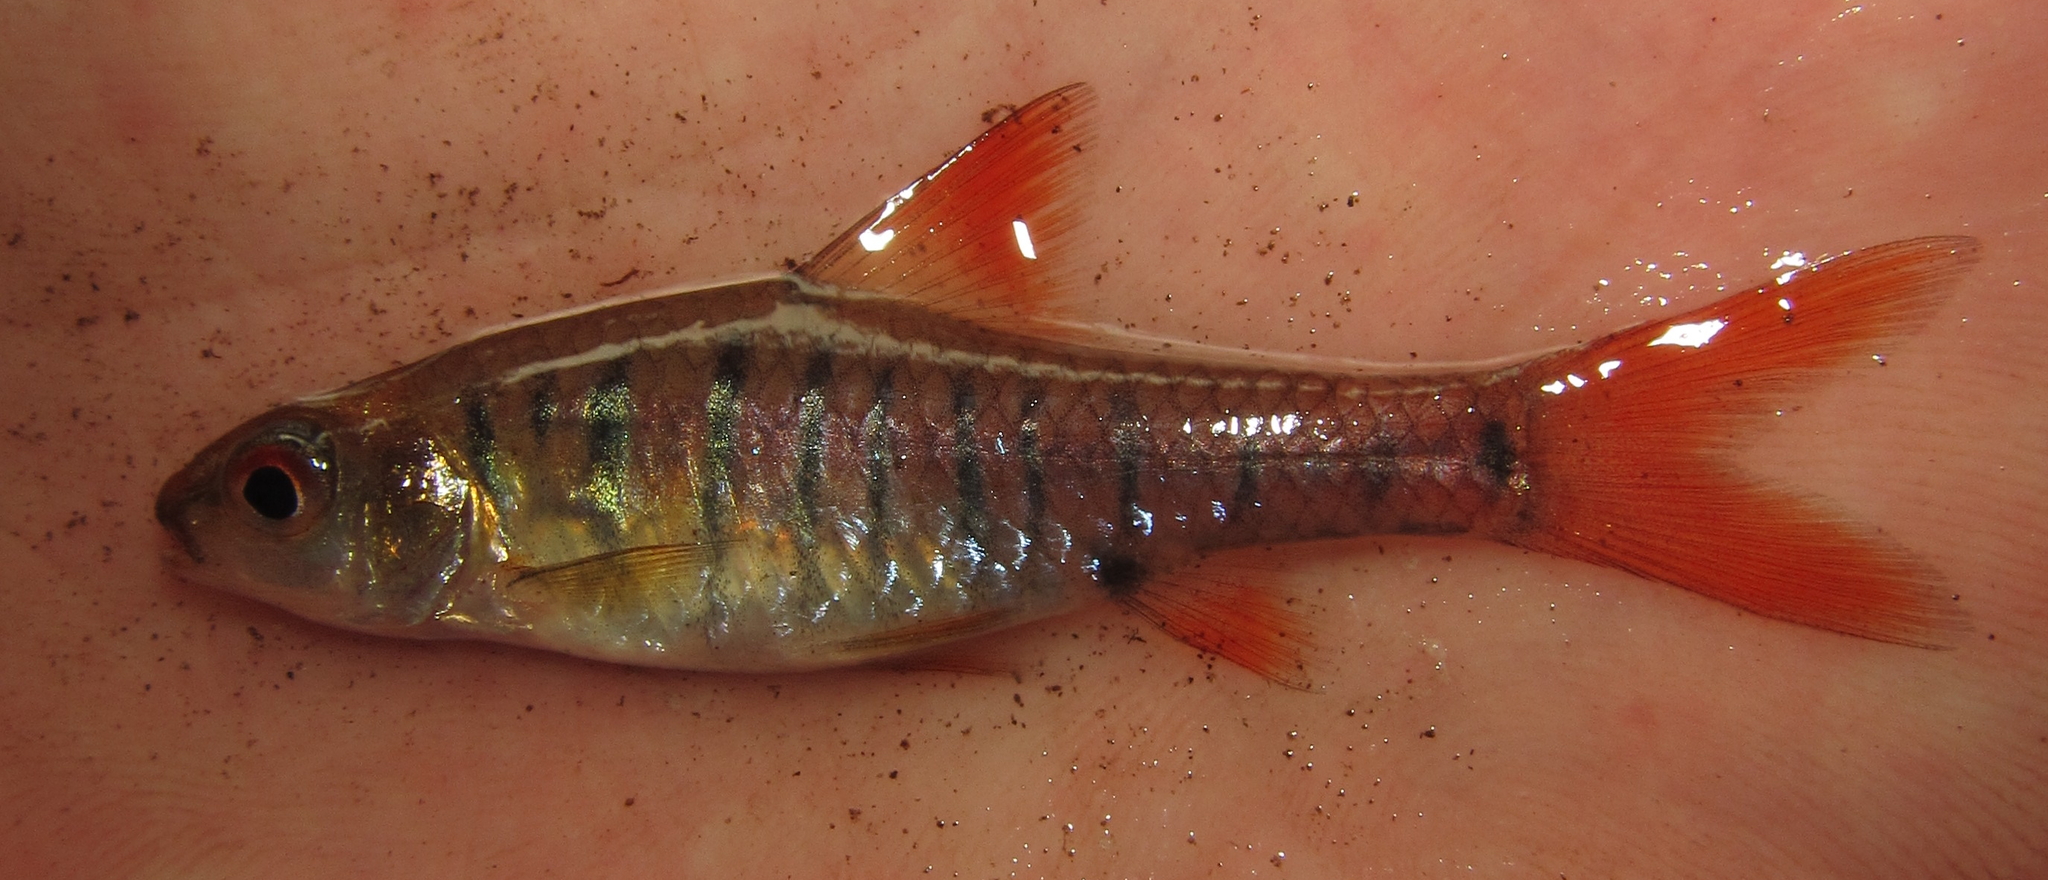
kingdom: Animalia
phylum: Chordata
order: Cypriniformes
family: Cyprinidae
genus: Enteromius
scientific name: Enteromius fasciolatus
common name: Red barb
